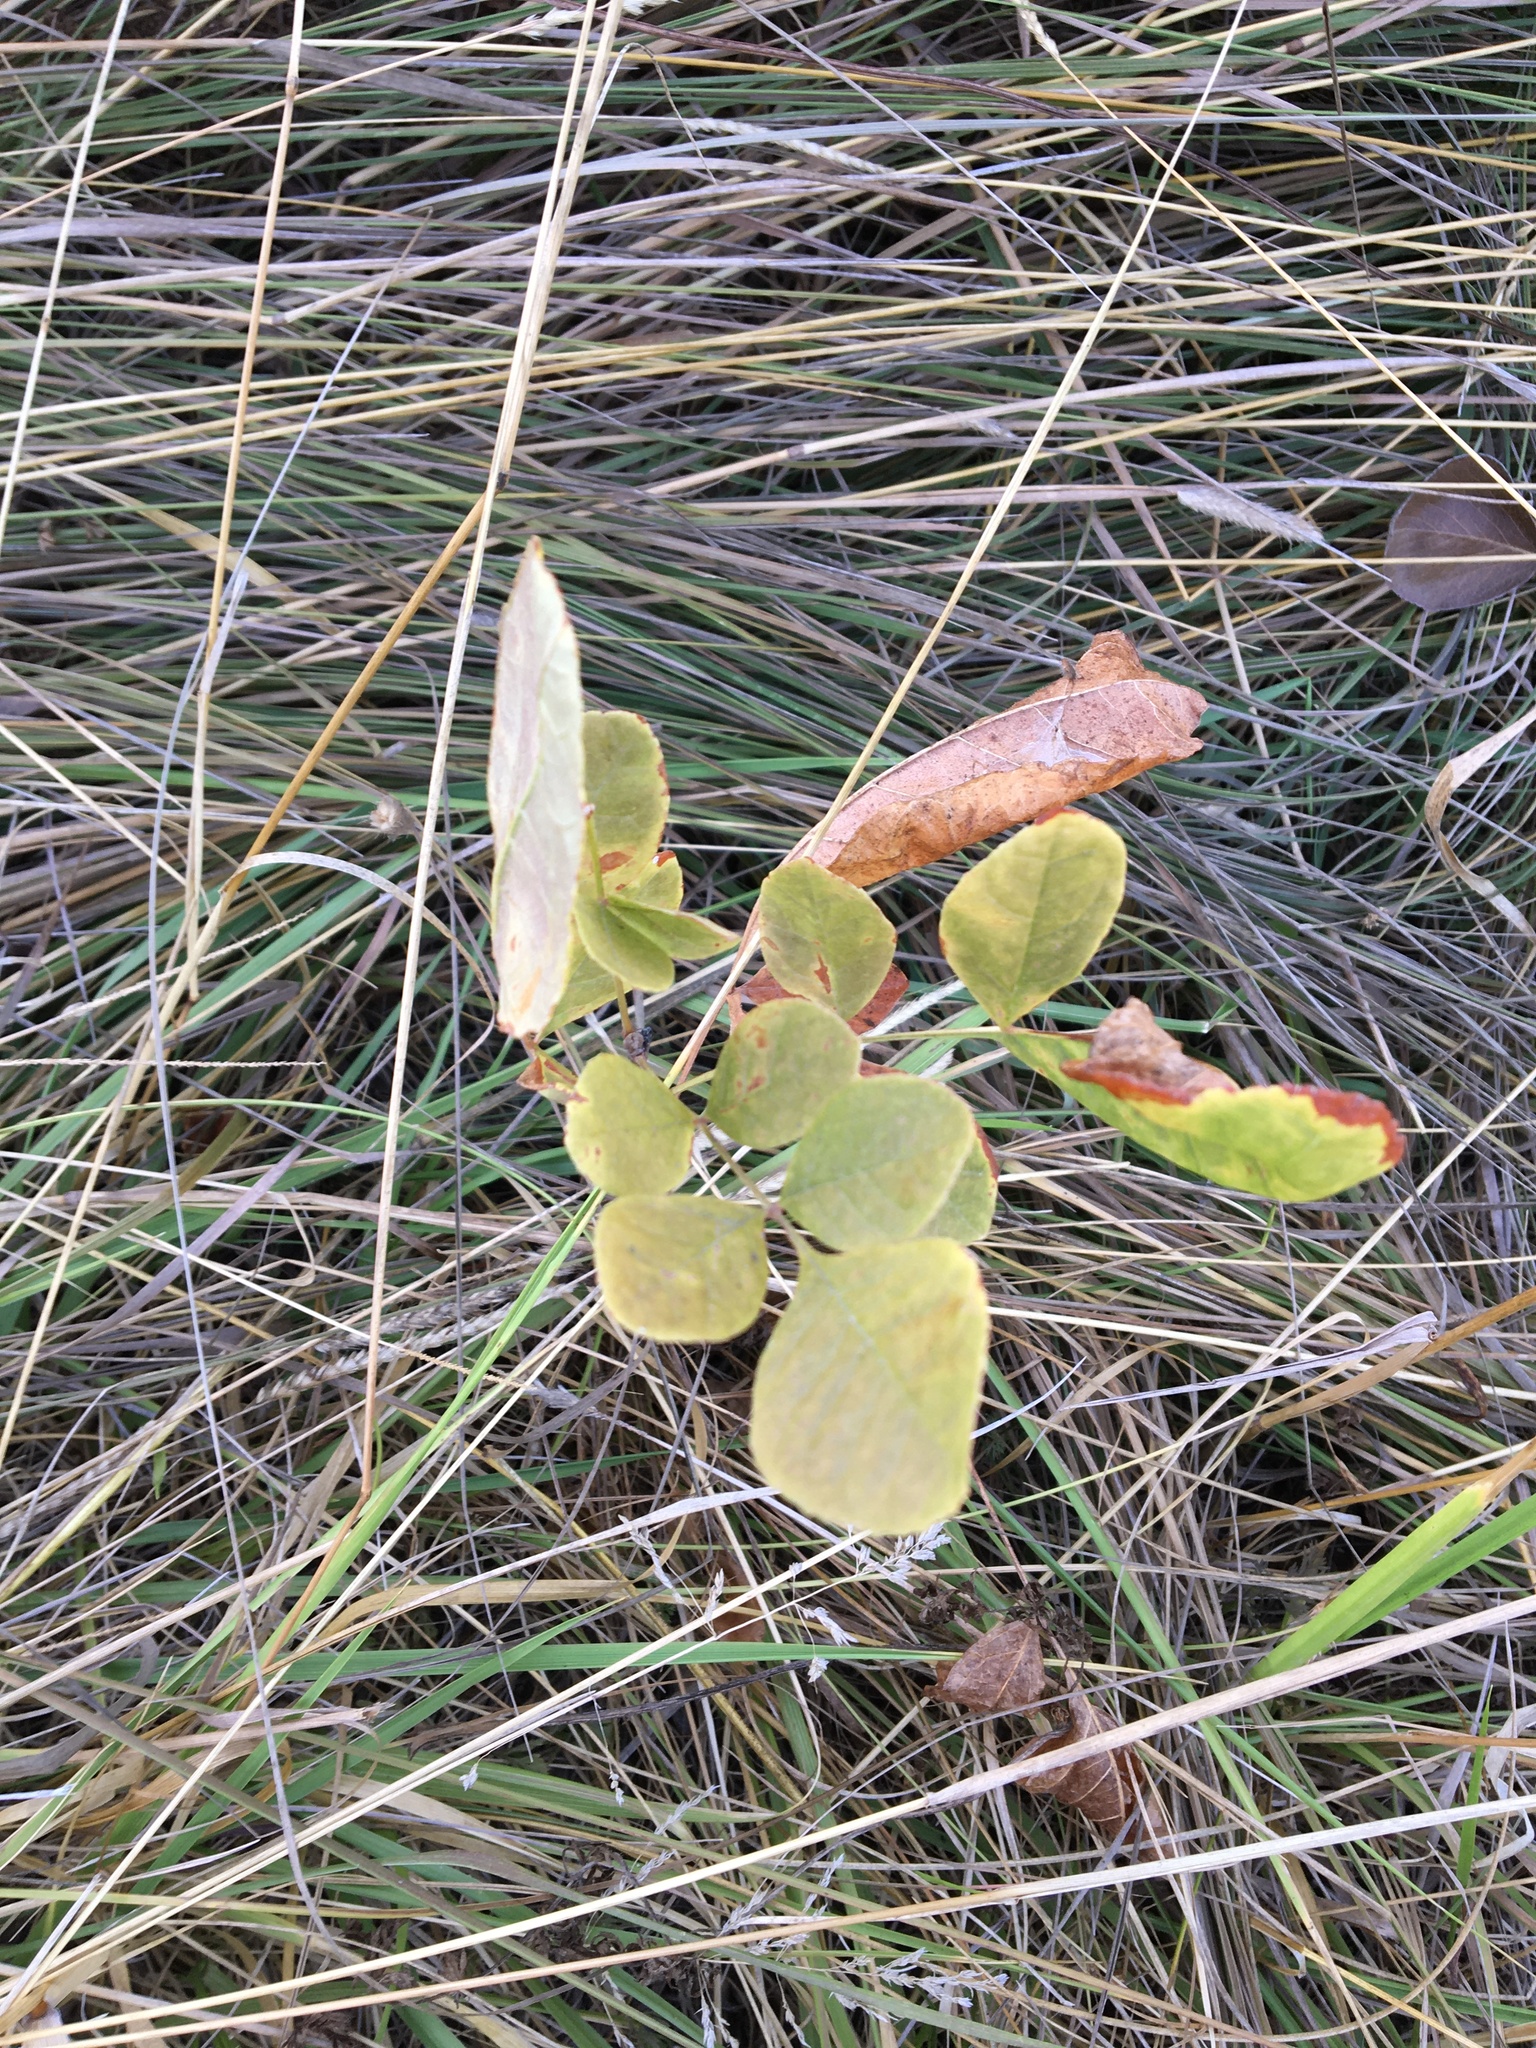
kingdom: Plantae
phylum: Tracheophyta
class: Magnoliopsida
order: Lamiales
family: Oleaceae
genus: Fraxinus
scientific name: Fraxinus latifolia
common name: Oregon ash
